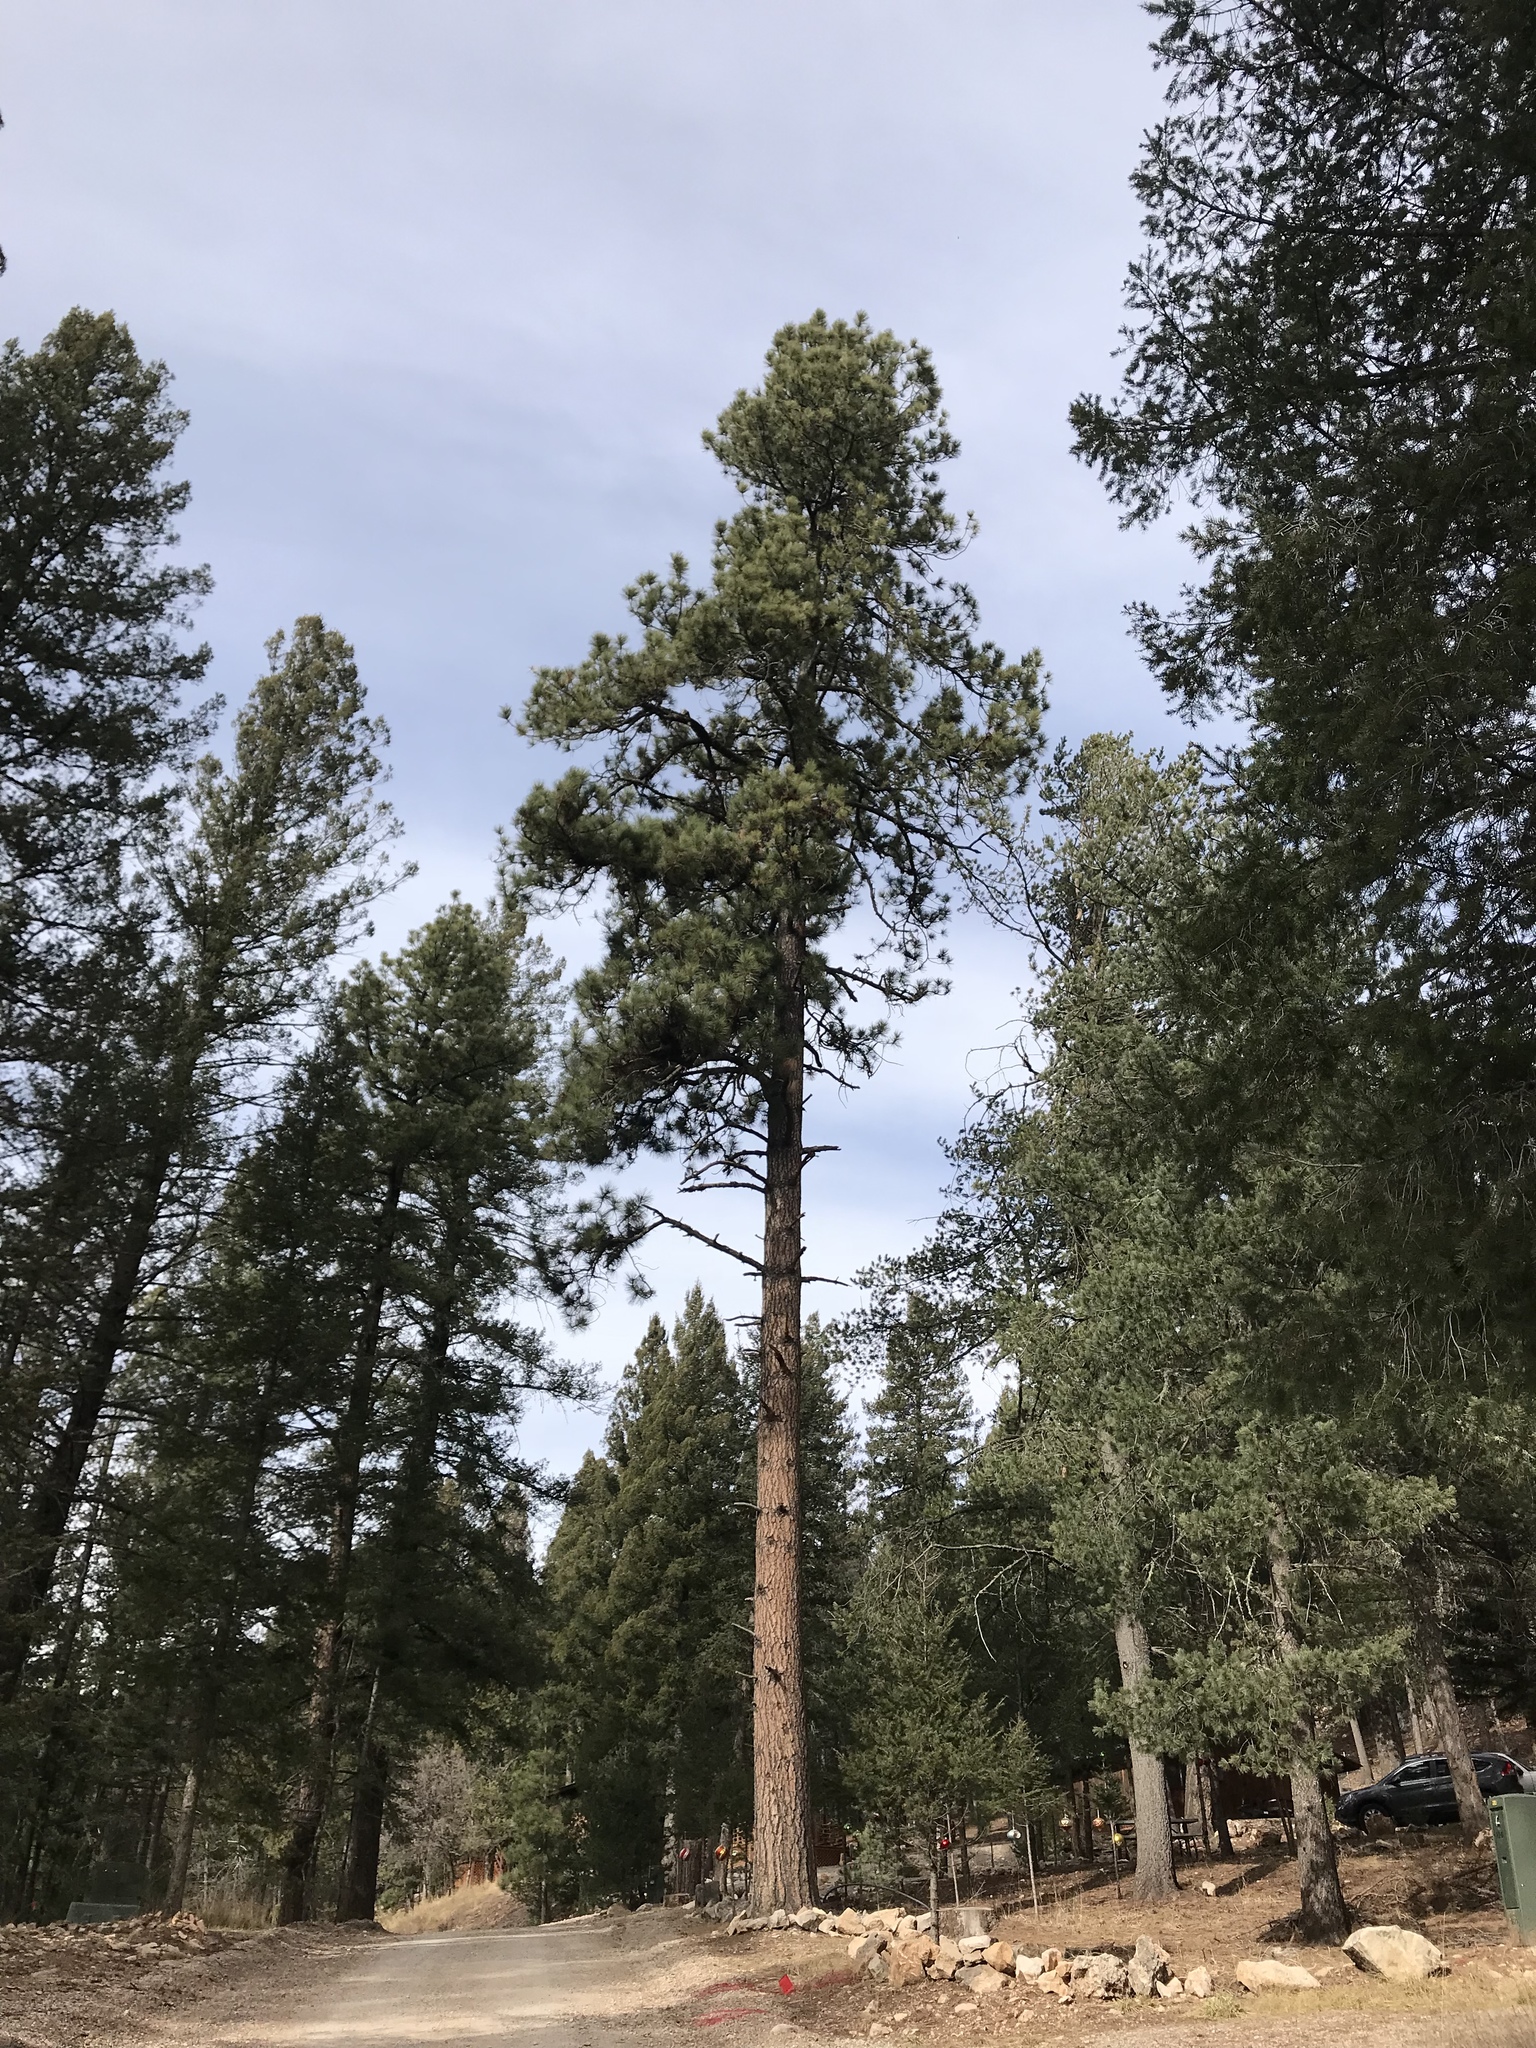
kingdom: Plantae
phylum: Tracheophyta
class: Pinopsida
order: Pinales
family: Pinaceae
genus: Pinus
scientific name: Pinus ponderosa
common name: Western yellow-pine
